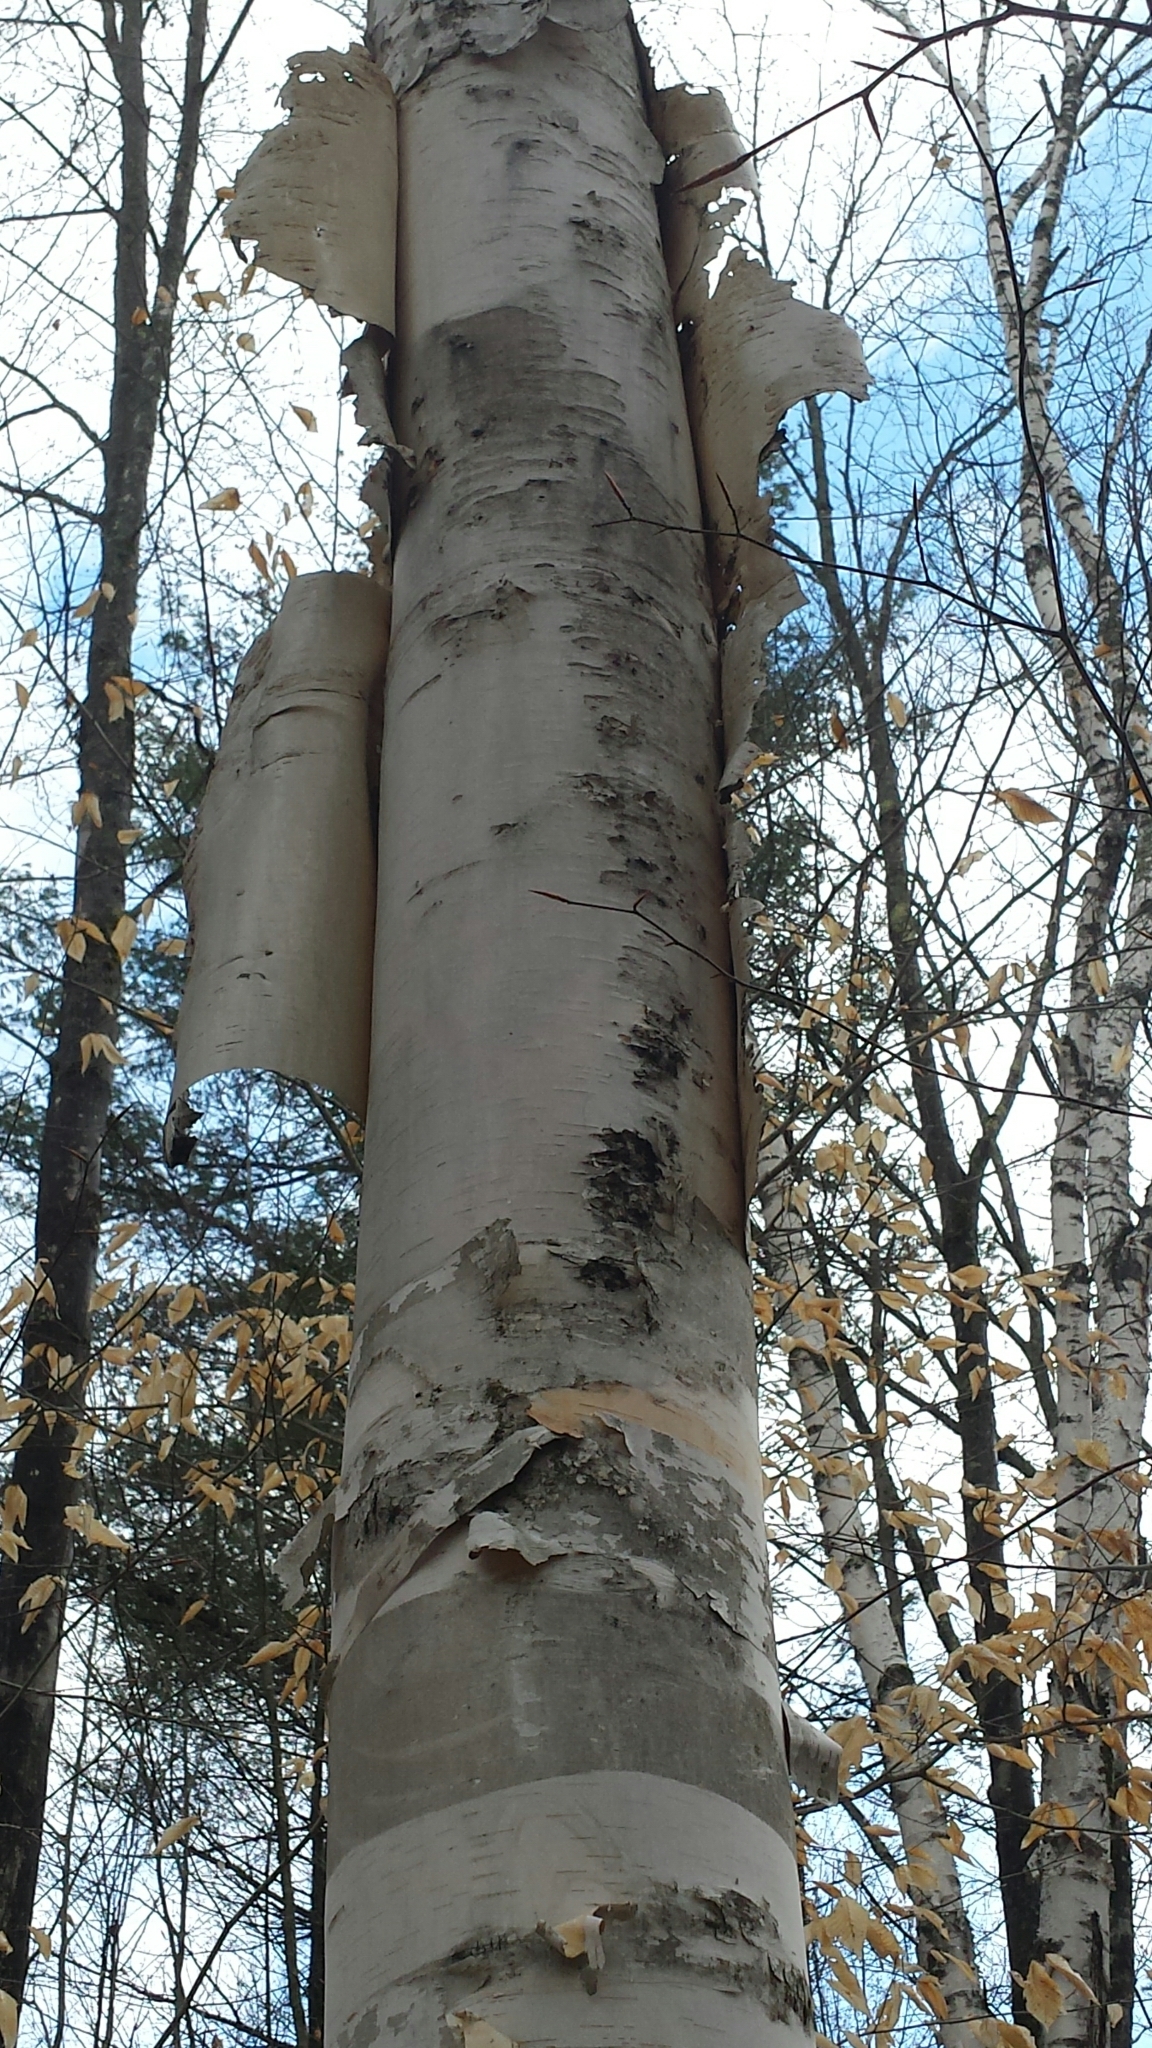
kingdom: Plantae
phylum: Tracheophyta
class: Magnoliopsida
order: Fagales
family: Betulaceae
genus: Betula
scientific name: Betula papyrifera
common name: Paper birch
